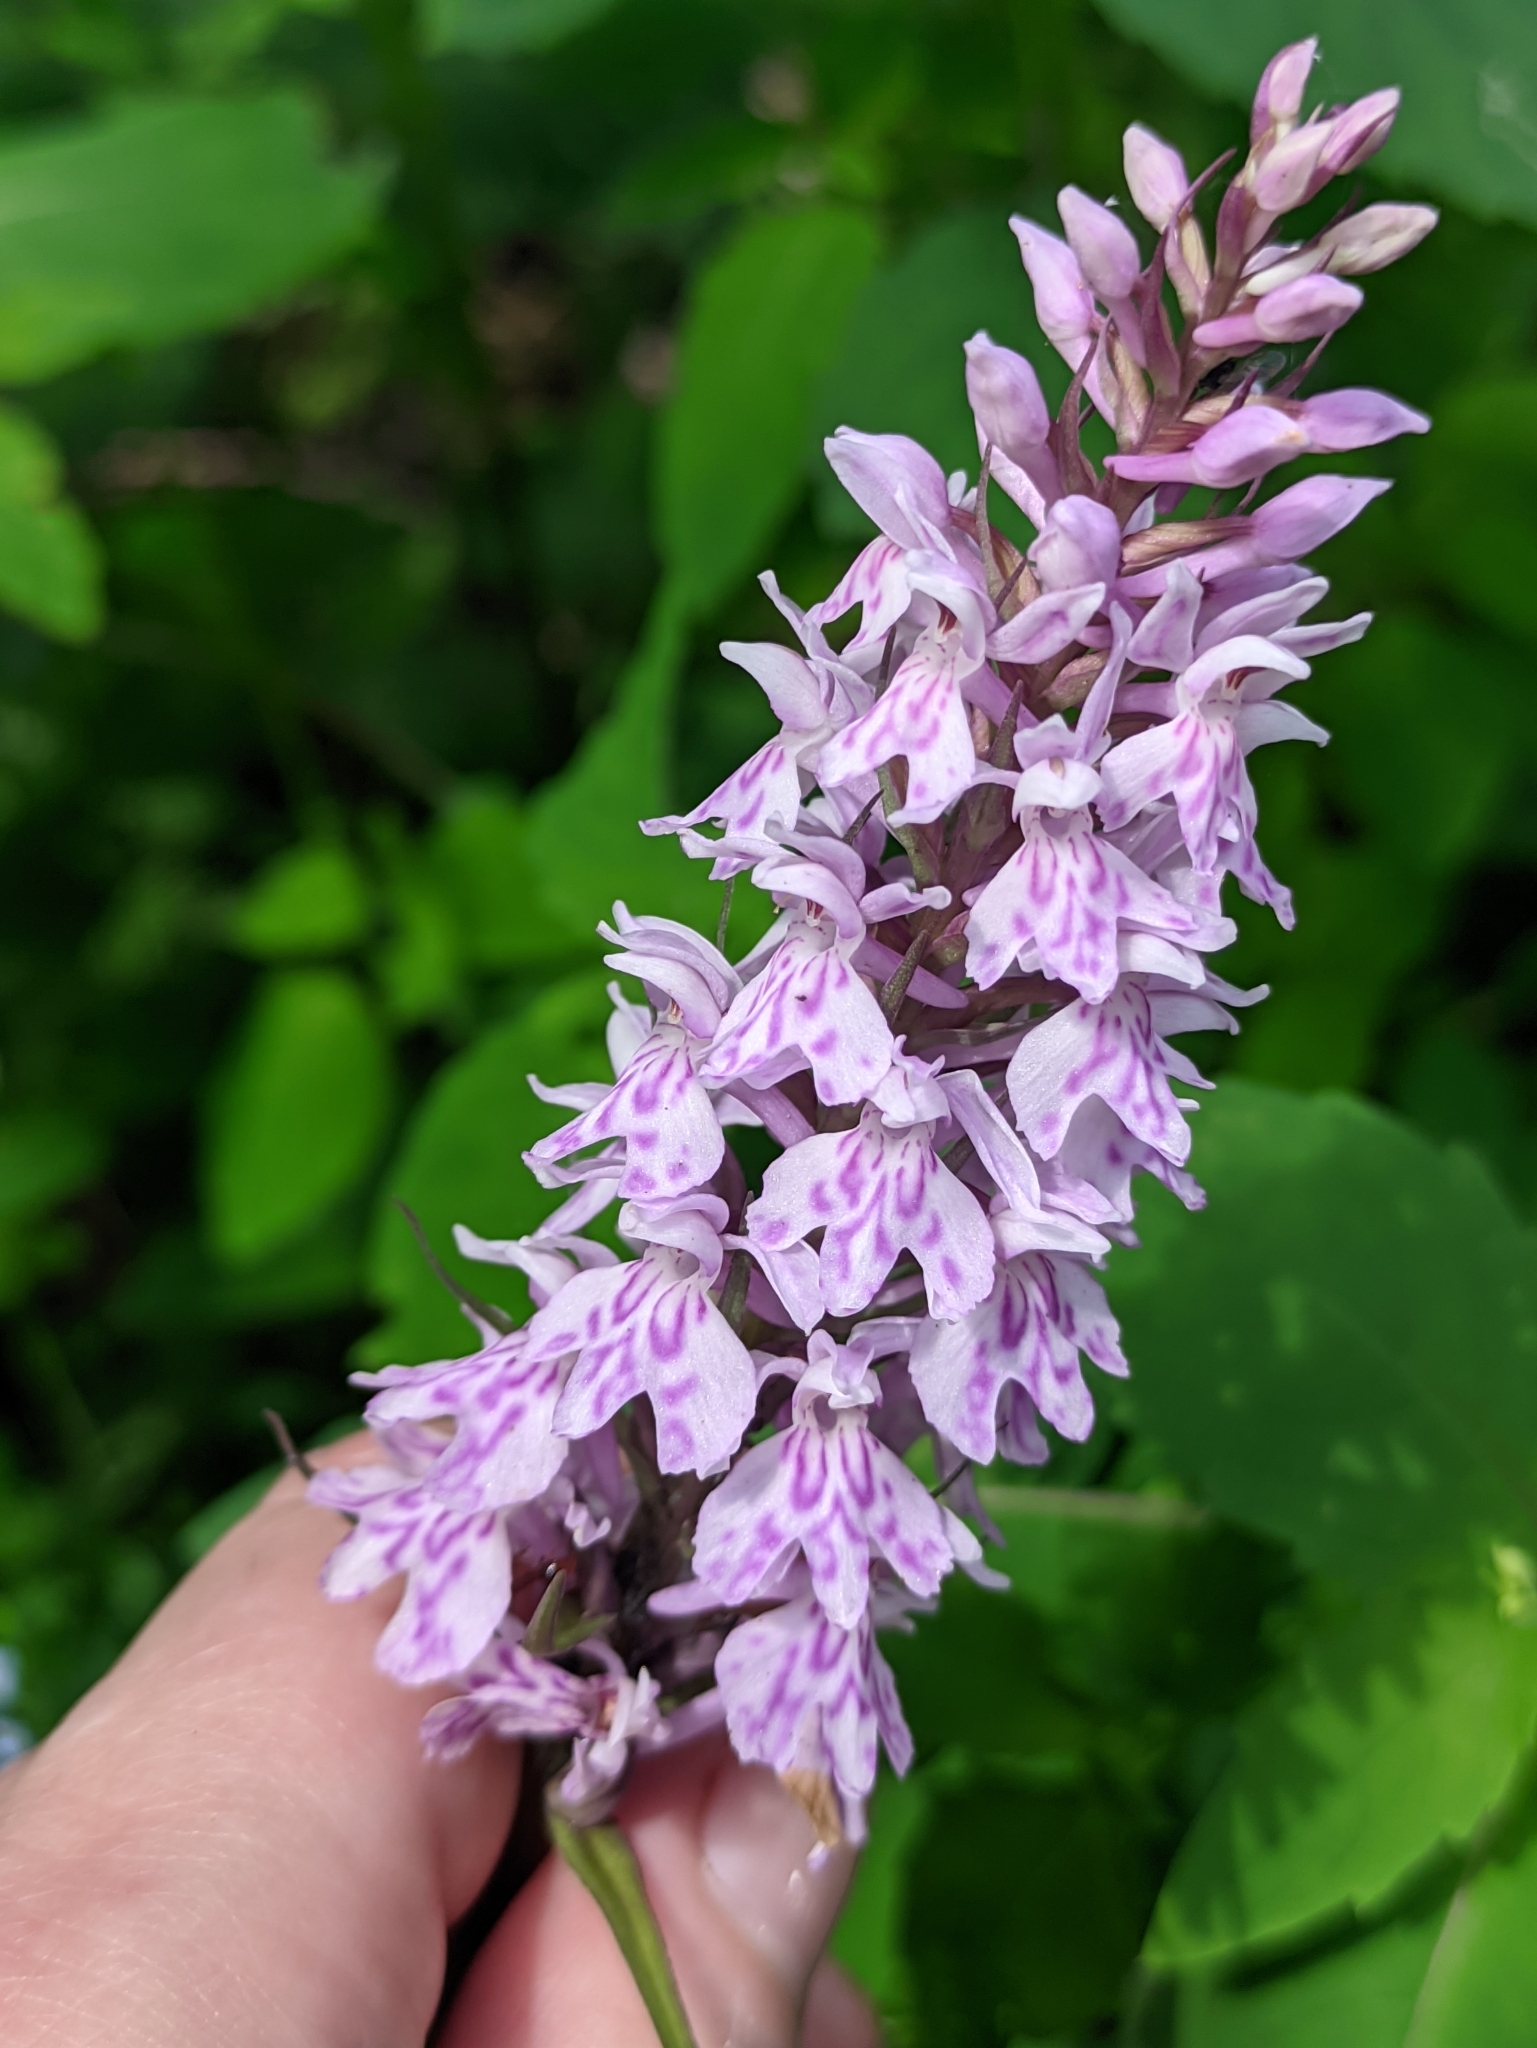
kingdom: Plantae
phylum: Tracheophyta
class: Liliopsida
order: Asparagales
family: Orchidaceae
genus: Dactylorhiza
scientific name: Dactylorhiza maculata
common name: Heath spotted-orchid
